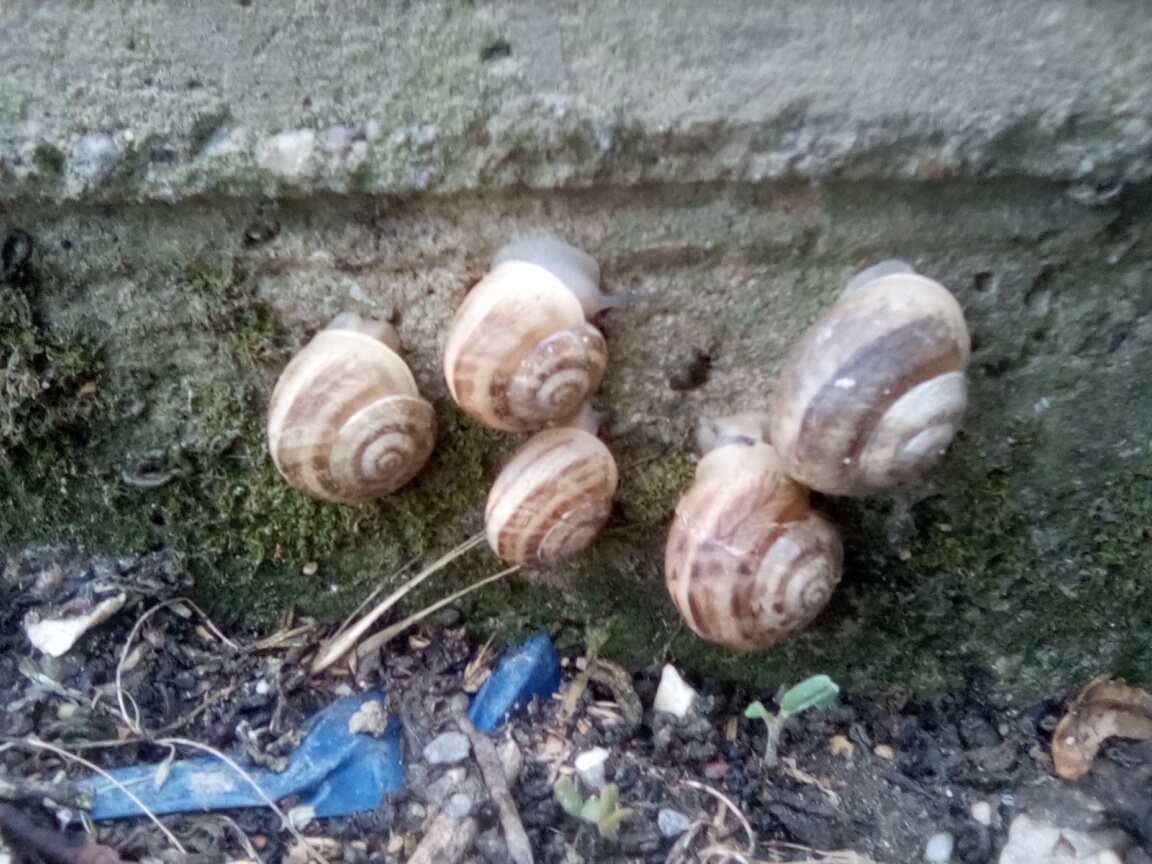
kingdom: Animalia
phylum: Mollusca
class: Gastropoda
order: Stylommatophora
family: Helicidae
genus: Eobania
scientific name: Eobania vermiculata
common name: Chocolateband snail
